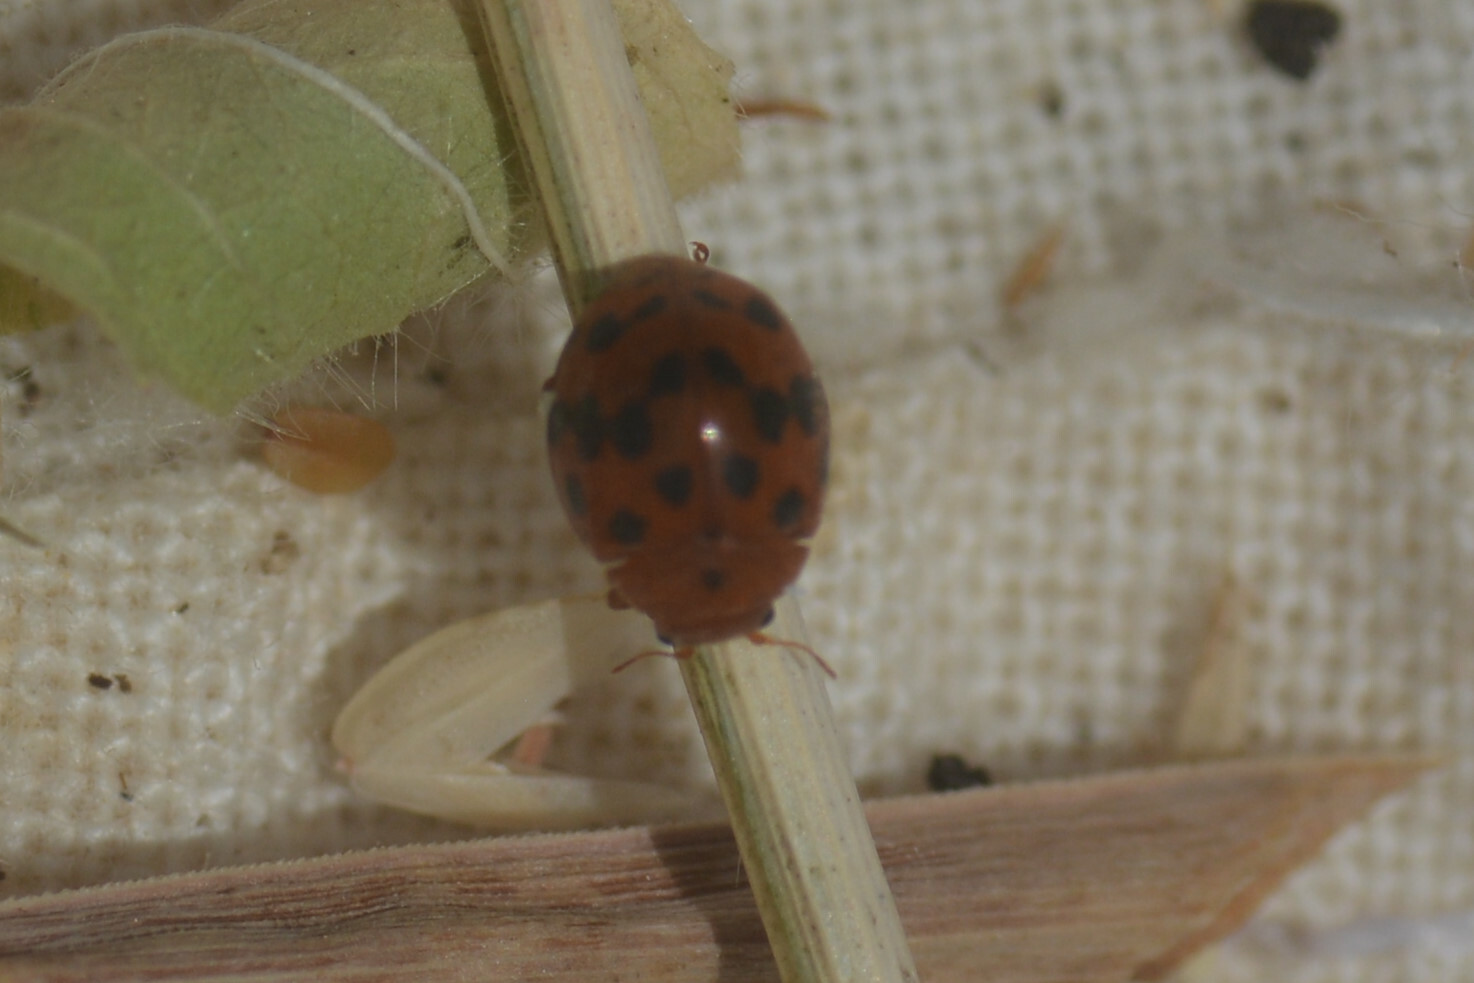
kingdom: Animalia
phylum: Arthropoda
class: Insecta
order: Coleoptera
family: Coccinellidae
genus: Subcoccinella
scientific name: Subcoccinella vigintiquatuorpunctata
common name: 24-spot ladybird
